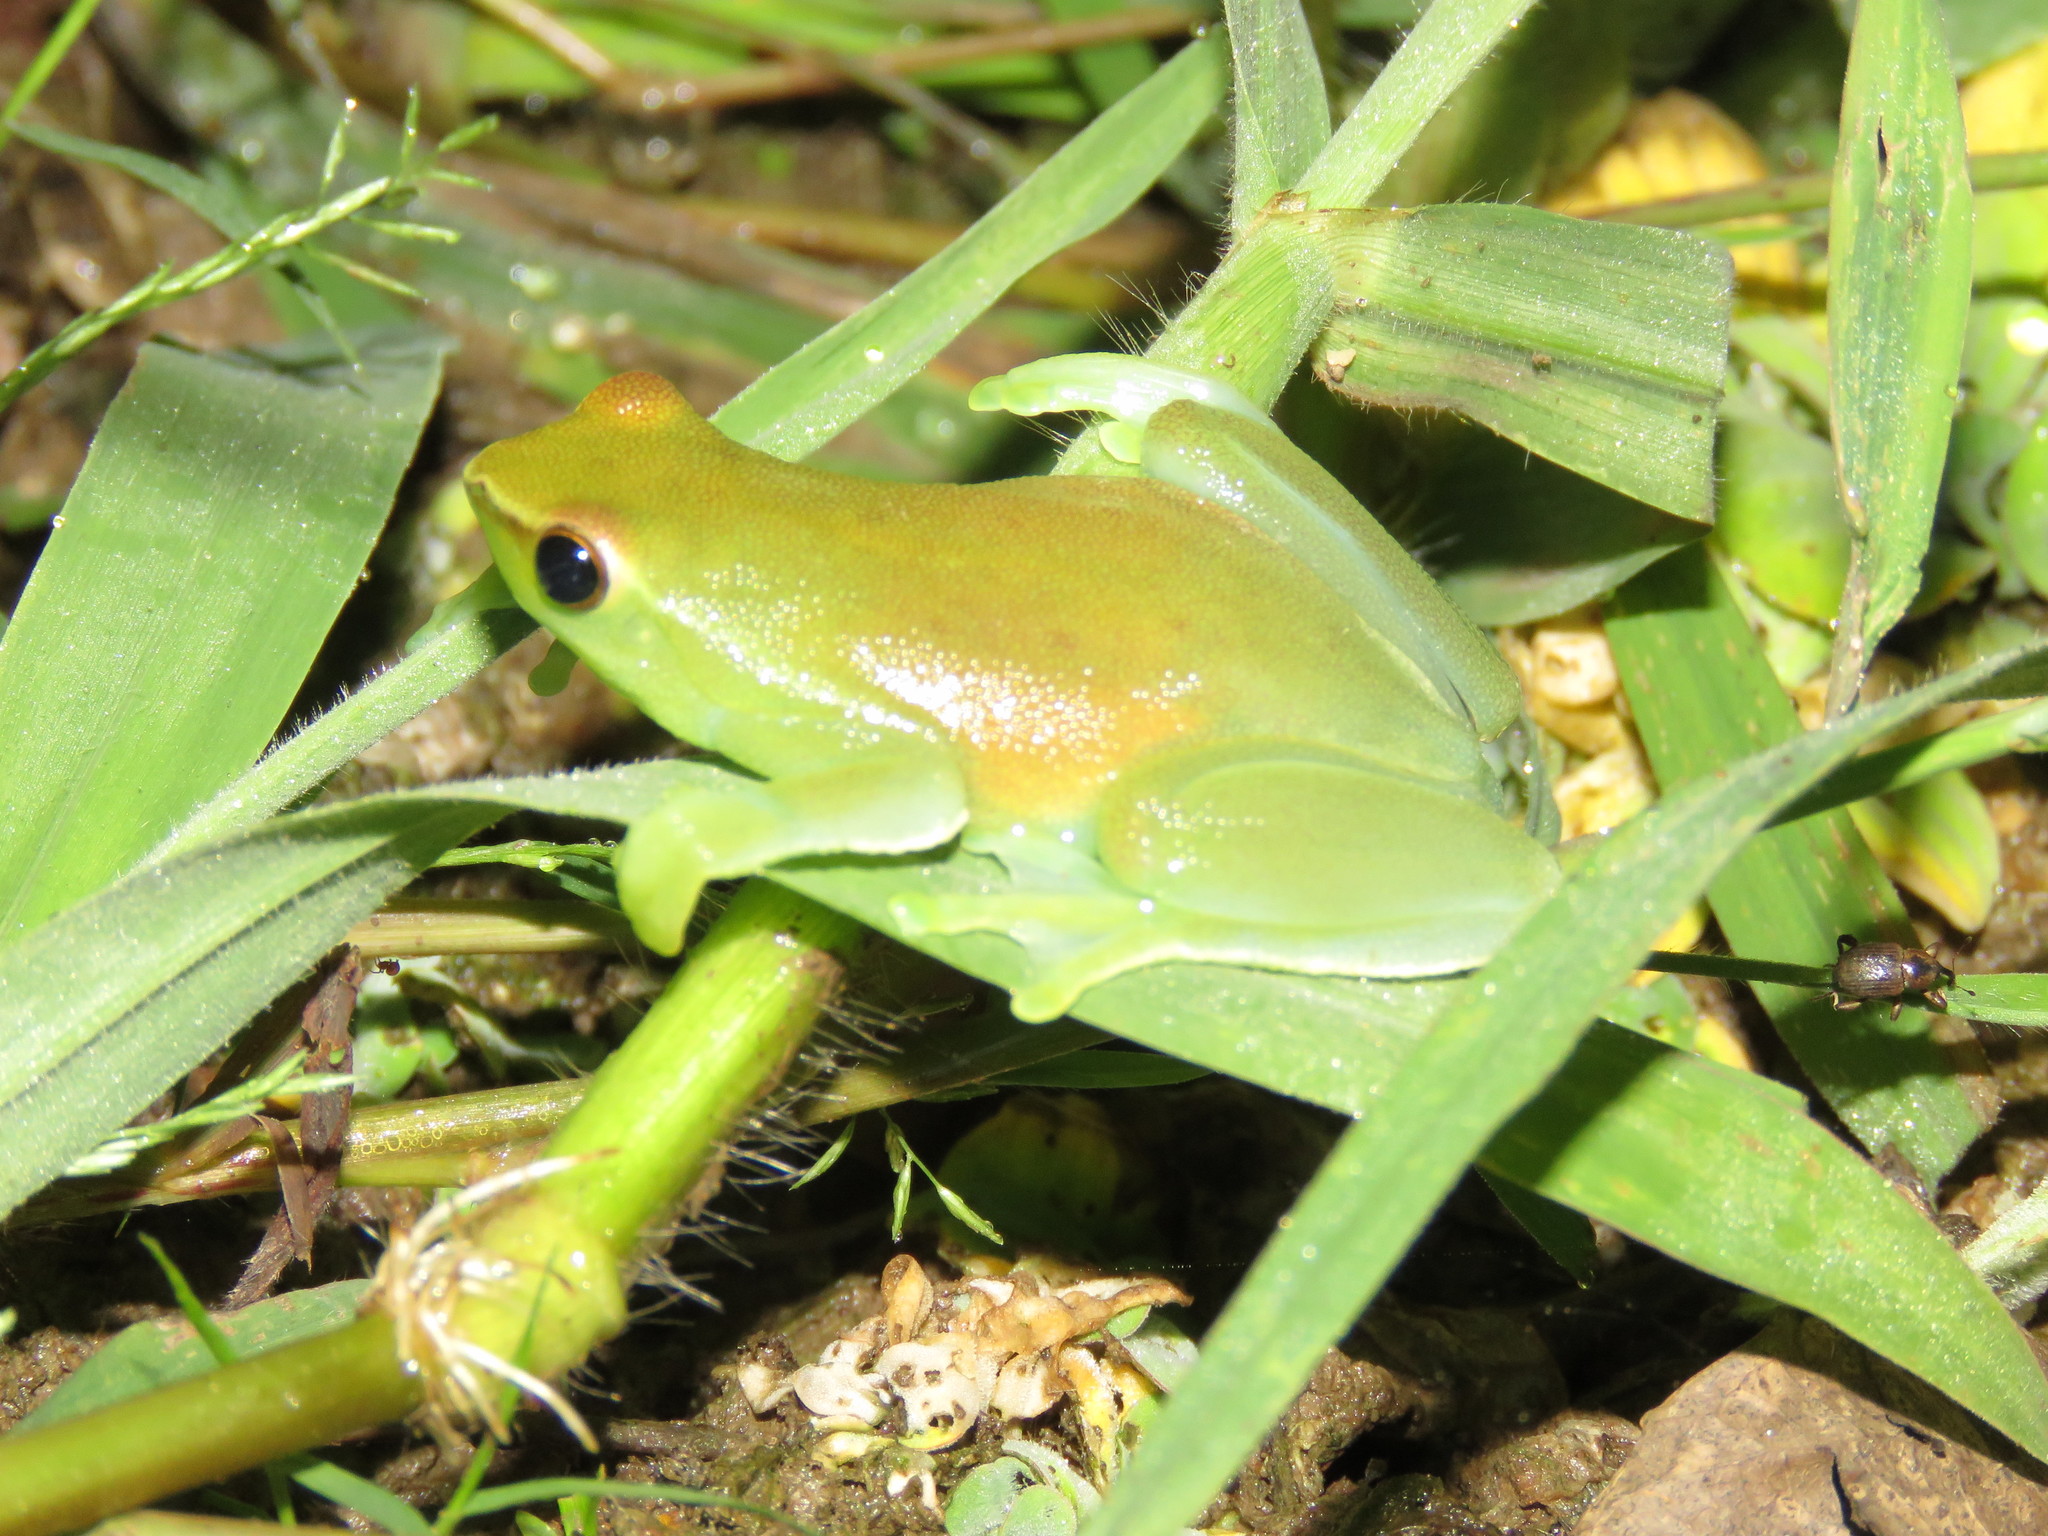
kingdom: Animalia
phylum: Chordata
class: Amphibia
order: Anura
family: Hylidae
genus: Sphaenorhynchus
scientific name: Sphaenorhynchus lacteus
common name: Orinoco lime treefrog
